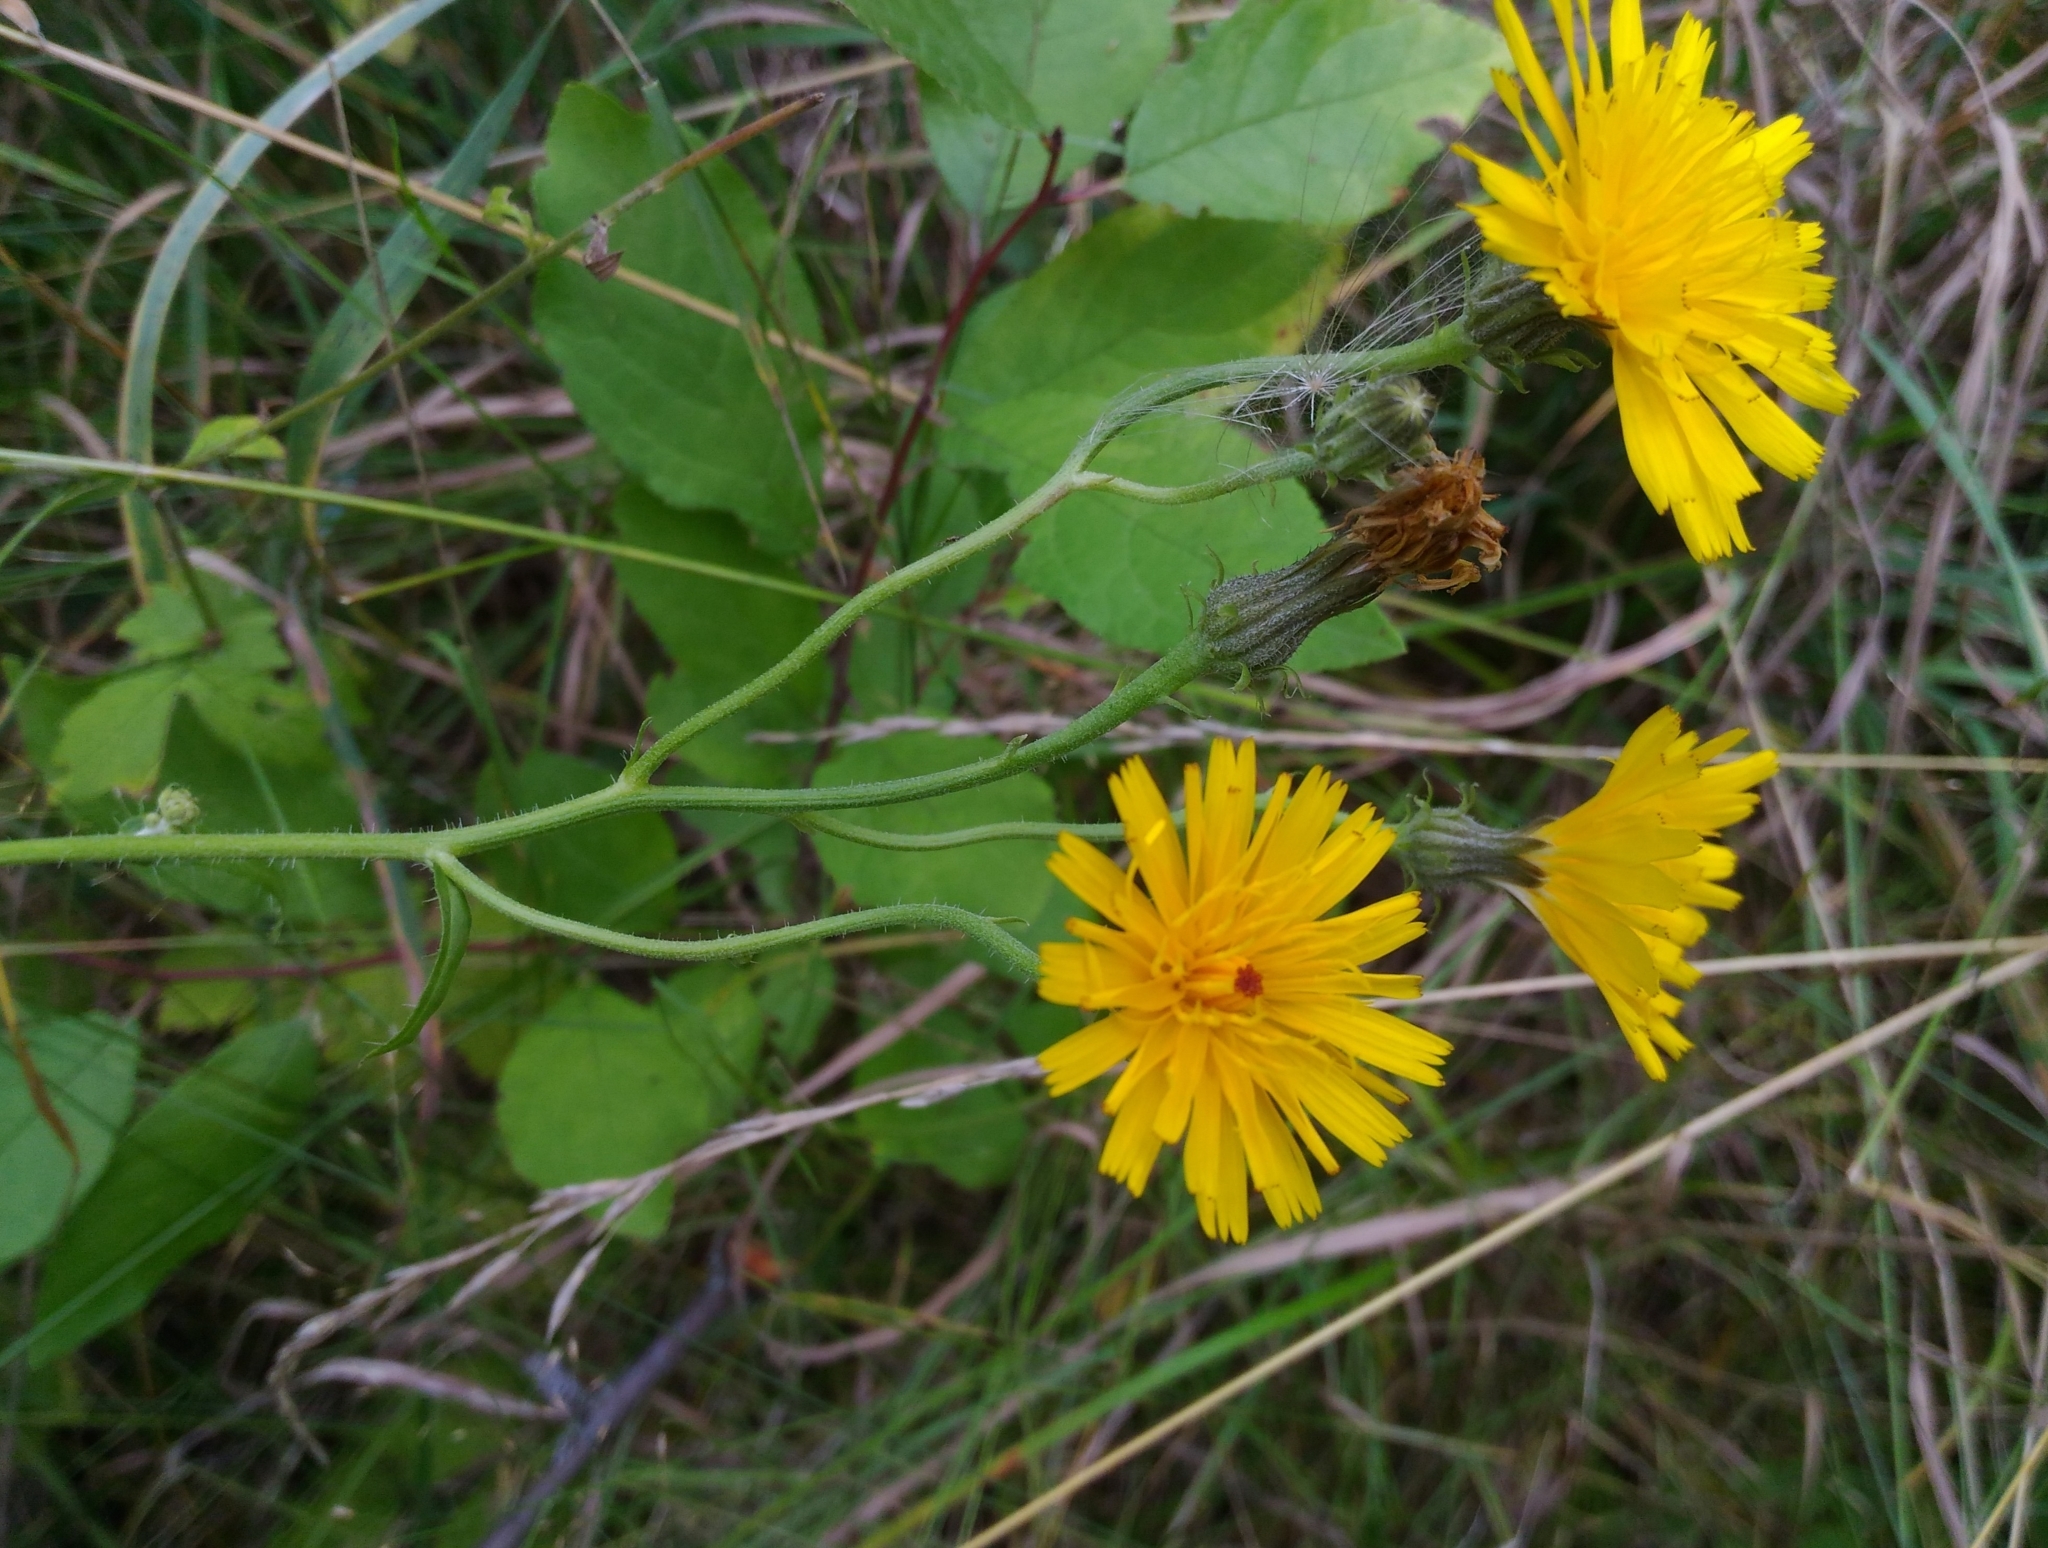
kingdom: Plantae
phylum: Tracheophyta
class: Magnoliopsida
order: Asterales
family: Asteraceae
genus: Picris
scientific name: Picris hieracioides
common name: Hawkweed oxtongue
